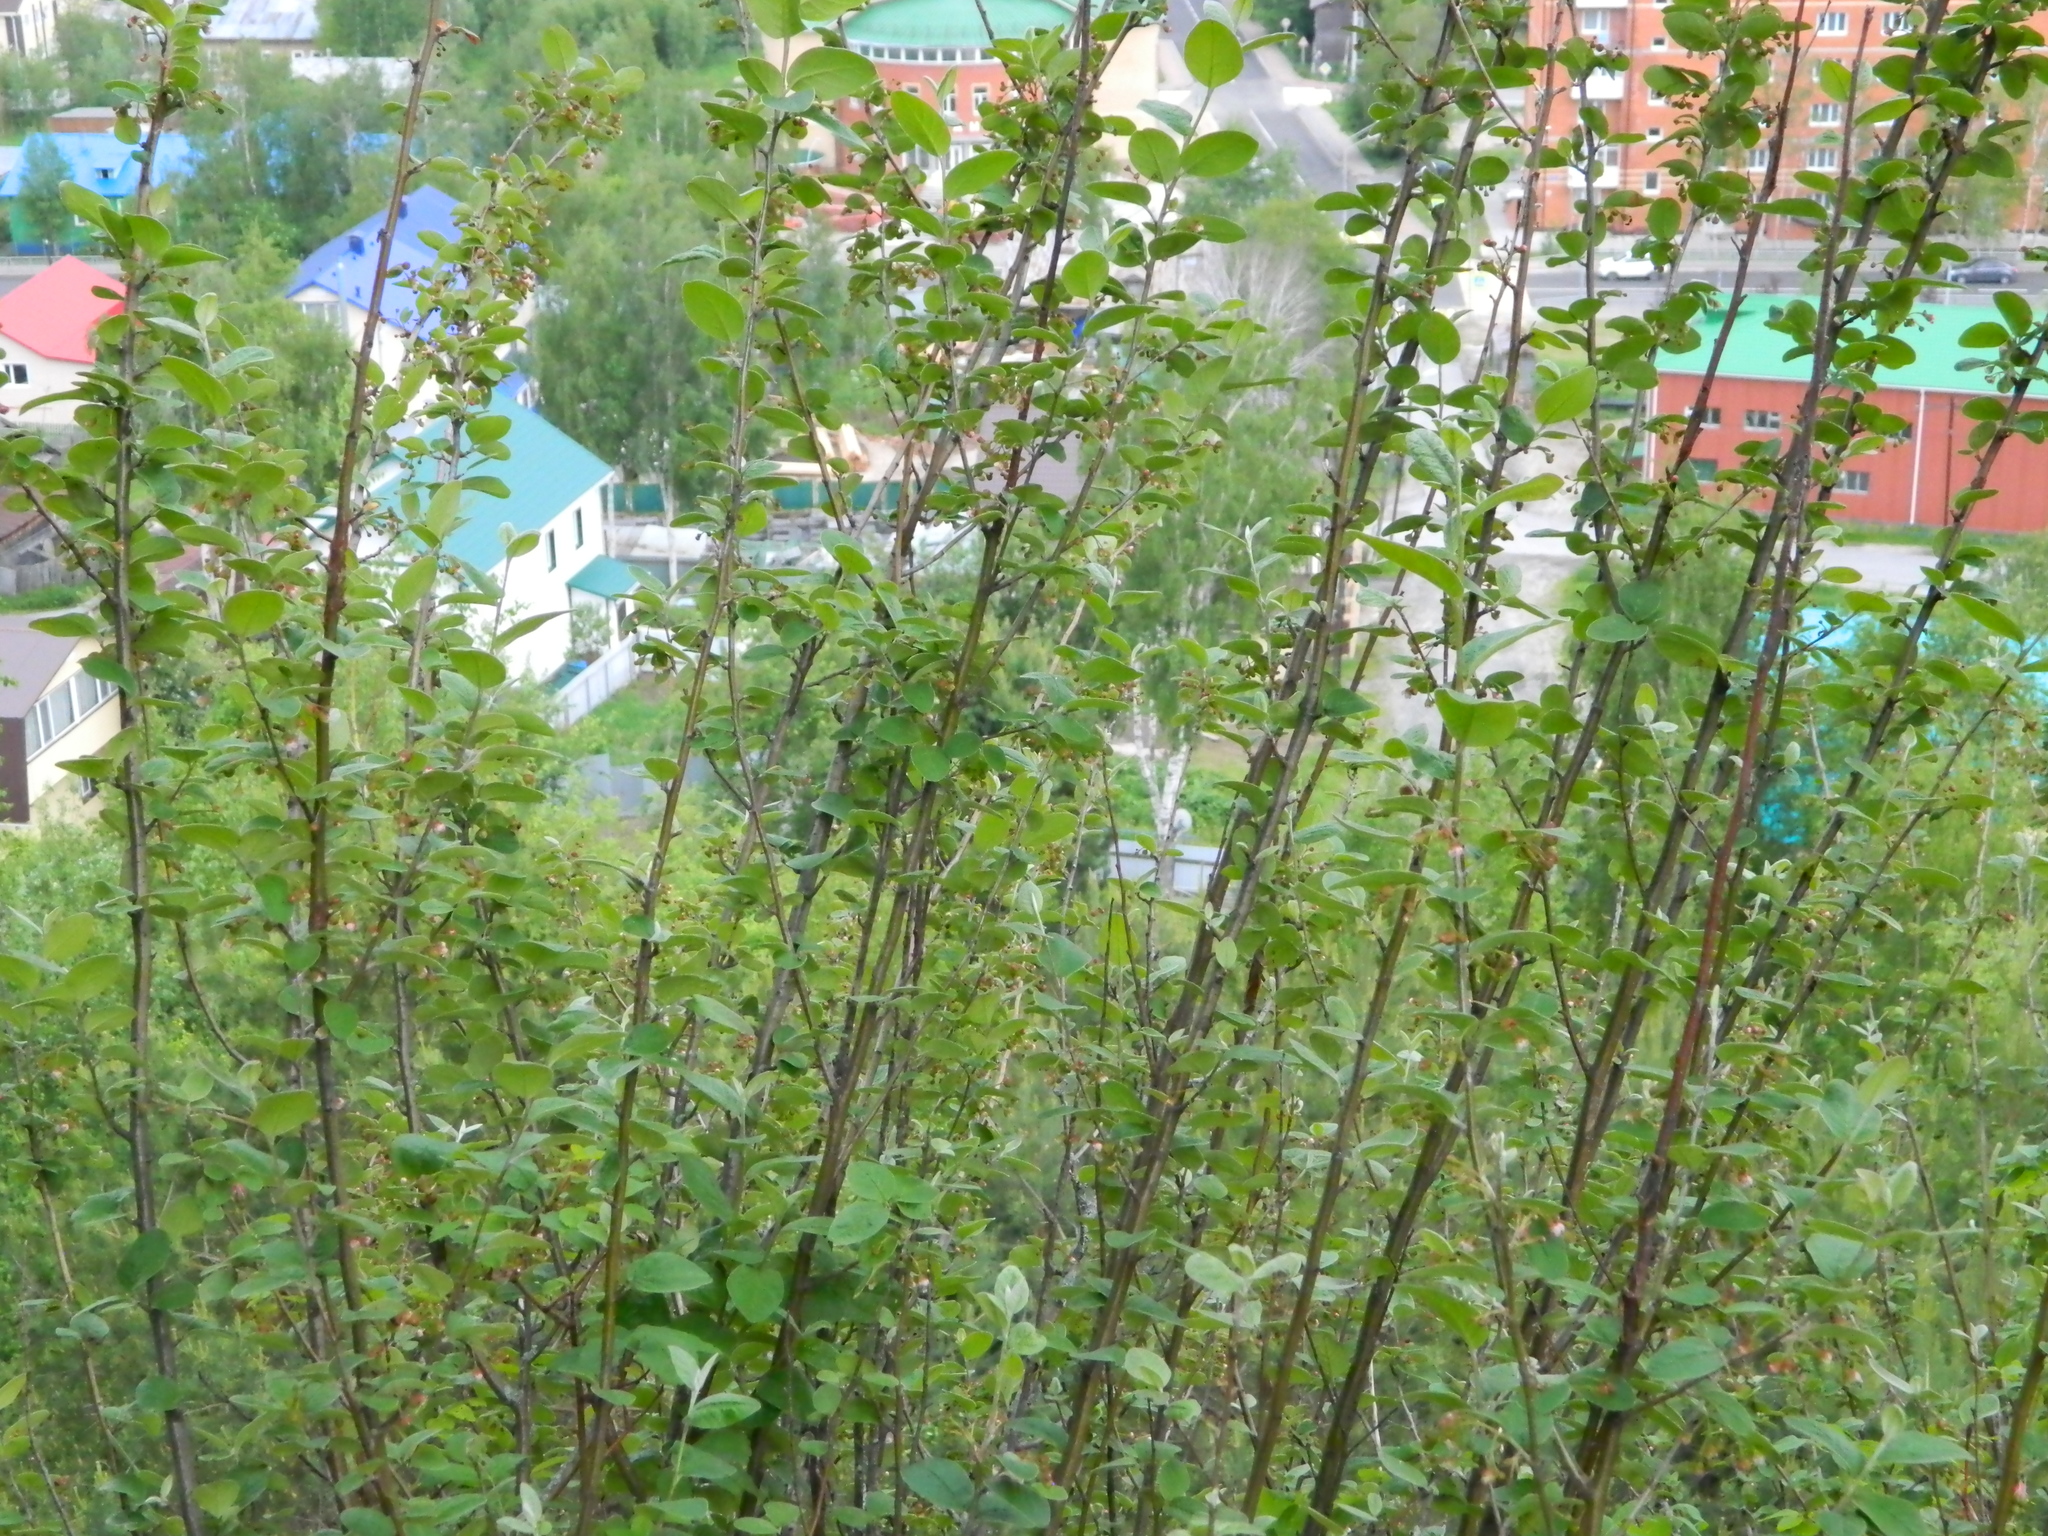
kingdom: Plantae
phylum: Tracheophyta
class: Magnoliopsida
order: Rosales
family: Rosaceae
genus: Cotoneaster
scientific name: Cotoneaster melanocarpus
